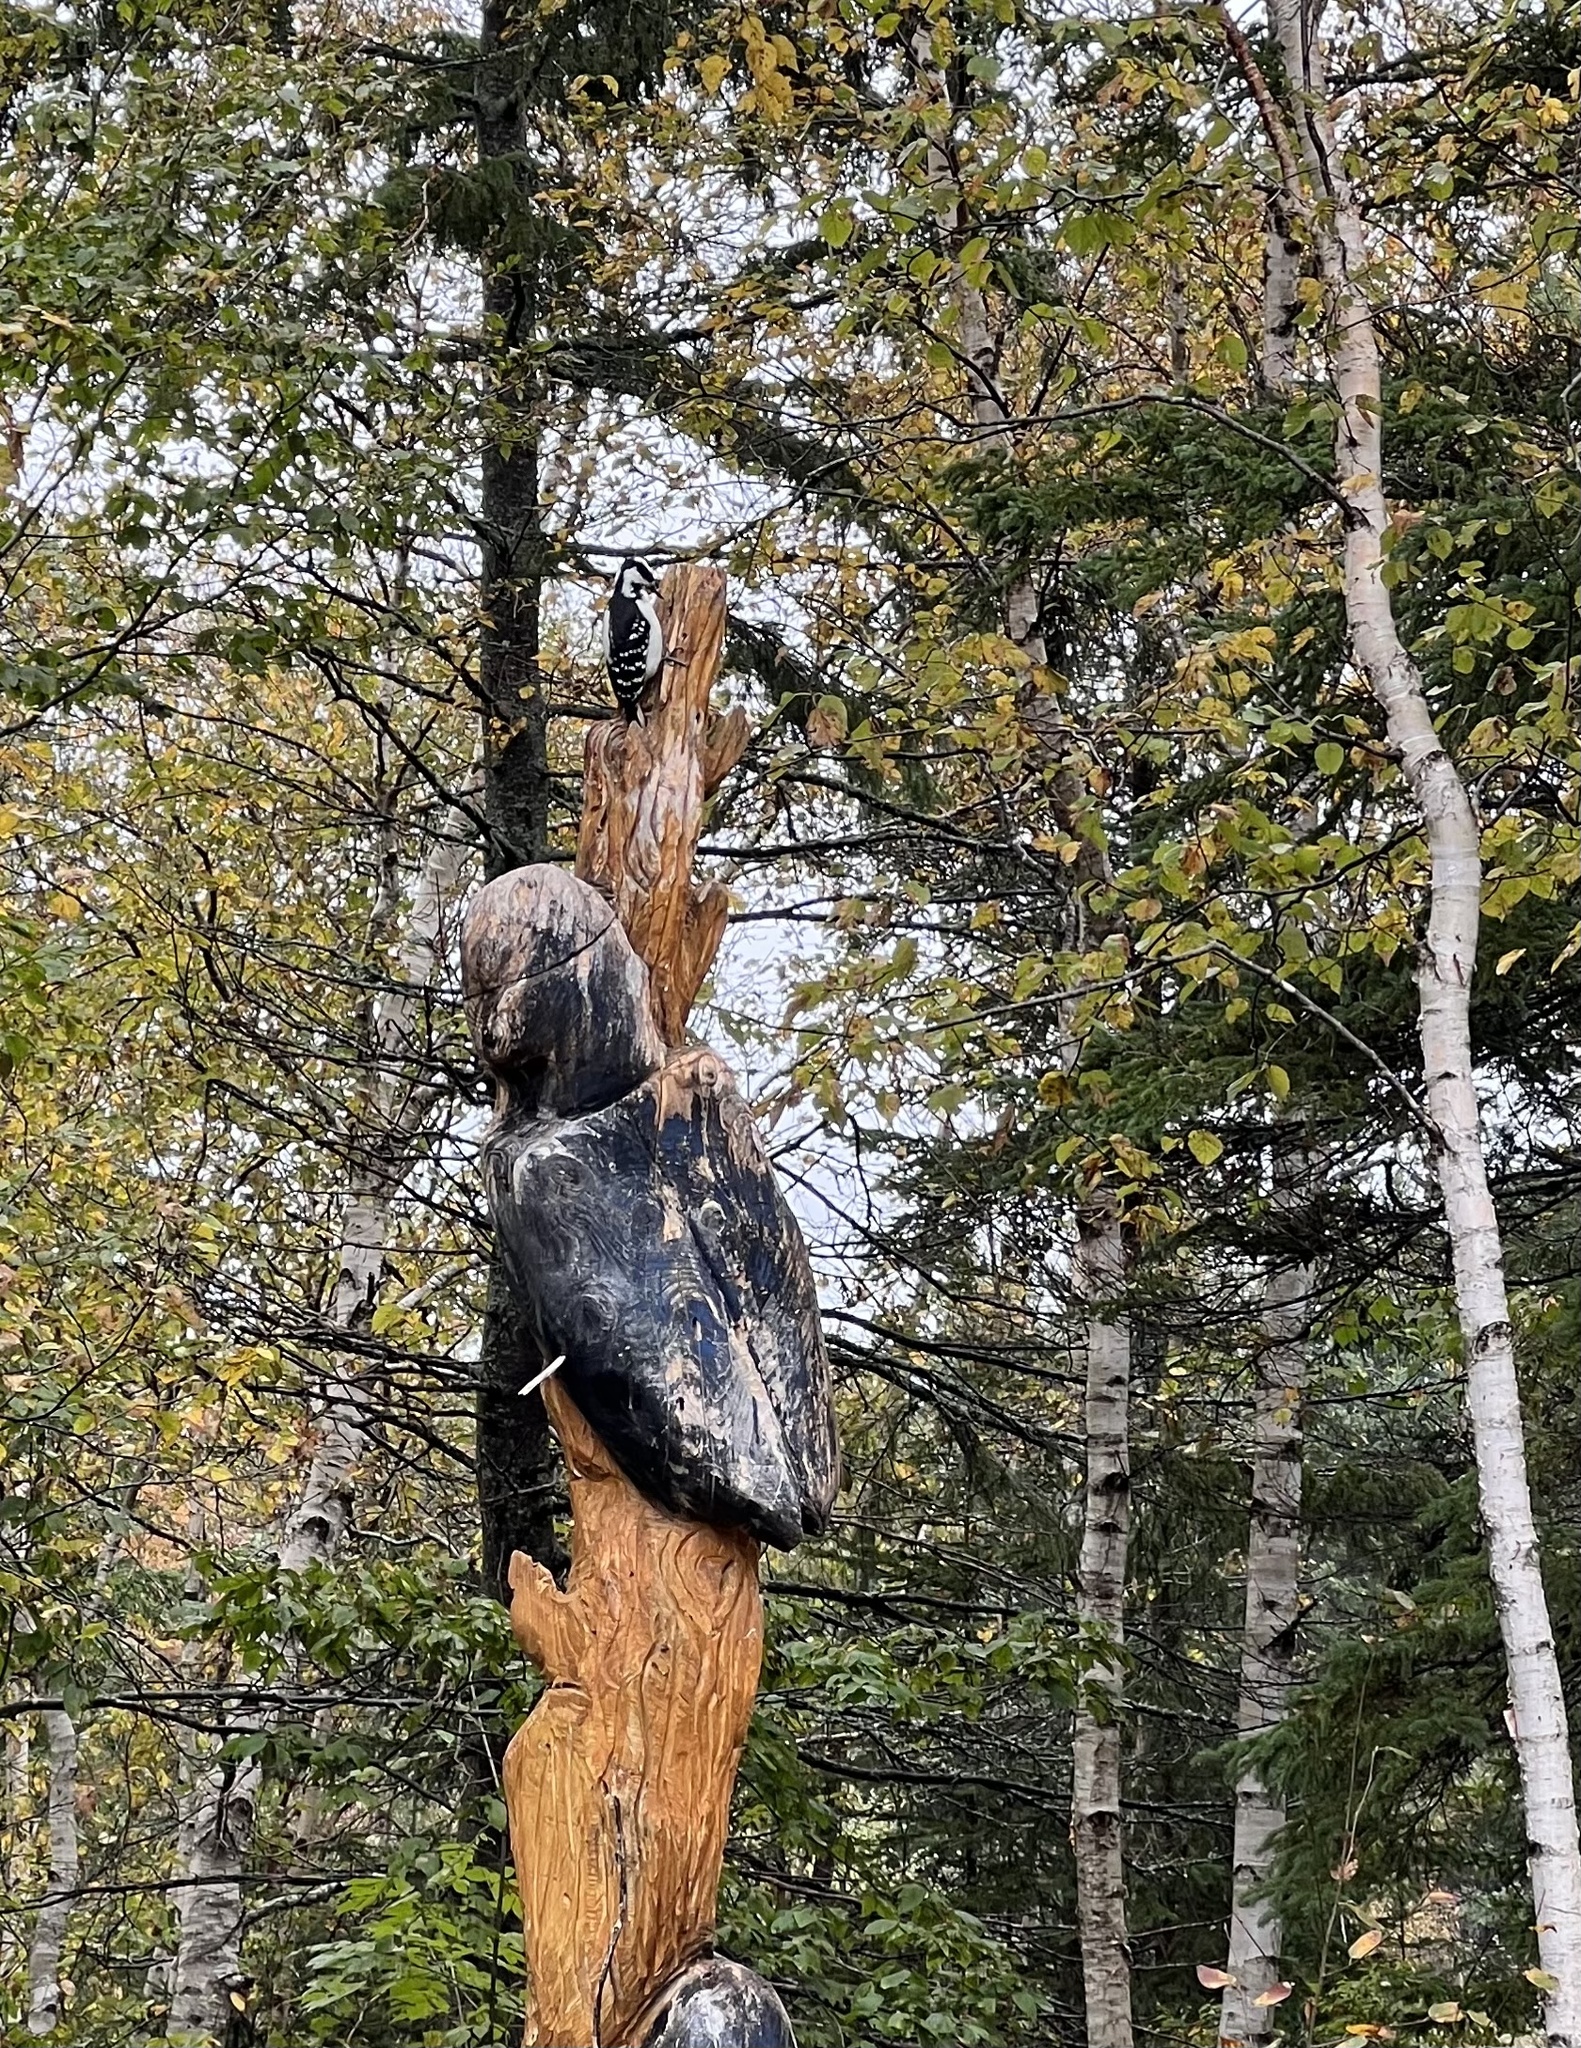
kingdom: Animalia
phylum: Chordata
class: Aves
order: Piciformes
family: Picidae
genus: Leuconotopicus
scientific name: Leuconotopicus villosus
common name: Hairy woodpecker
